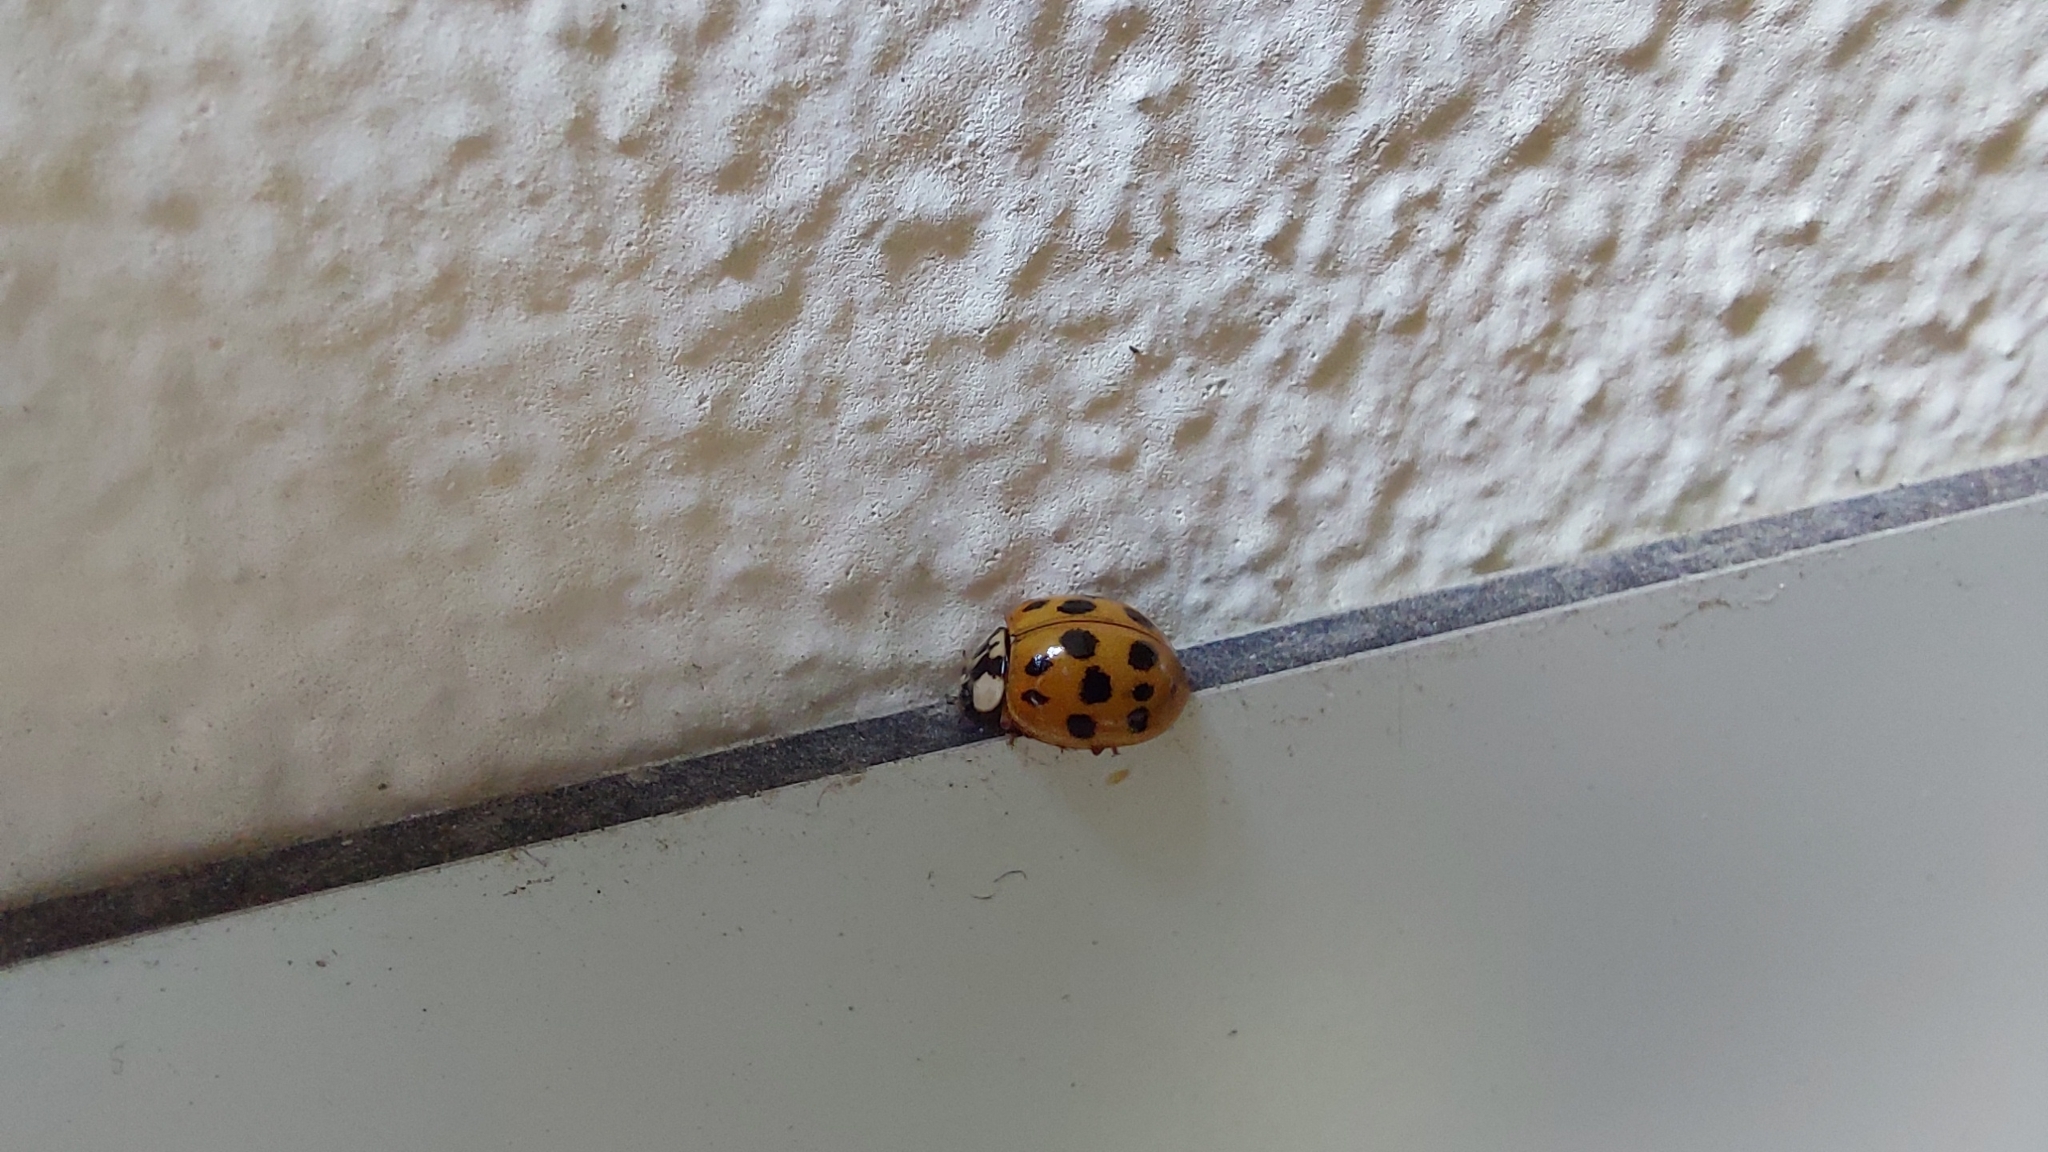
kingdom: Animalia
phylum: Arthropoda
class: Insecta
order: Coleoptera
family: Coccinellidae
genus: Harmonia
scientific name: Harmonia axyridis
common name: Harlequin ladybird
